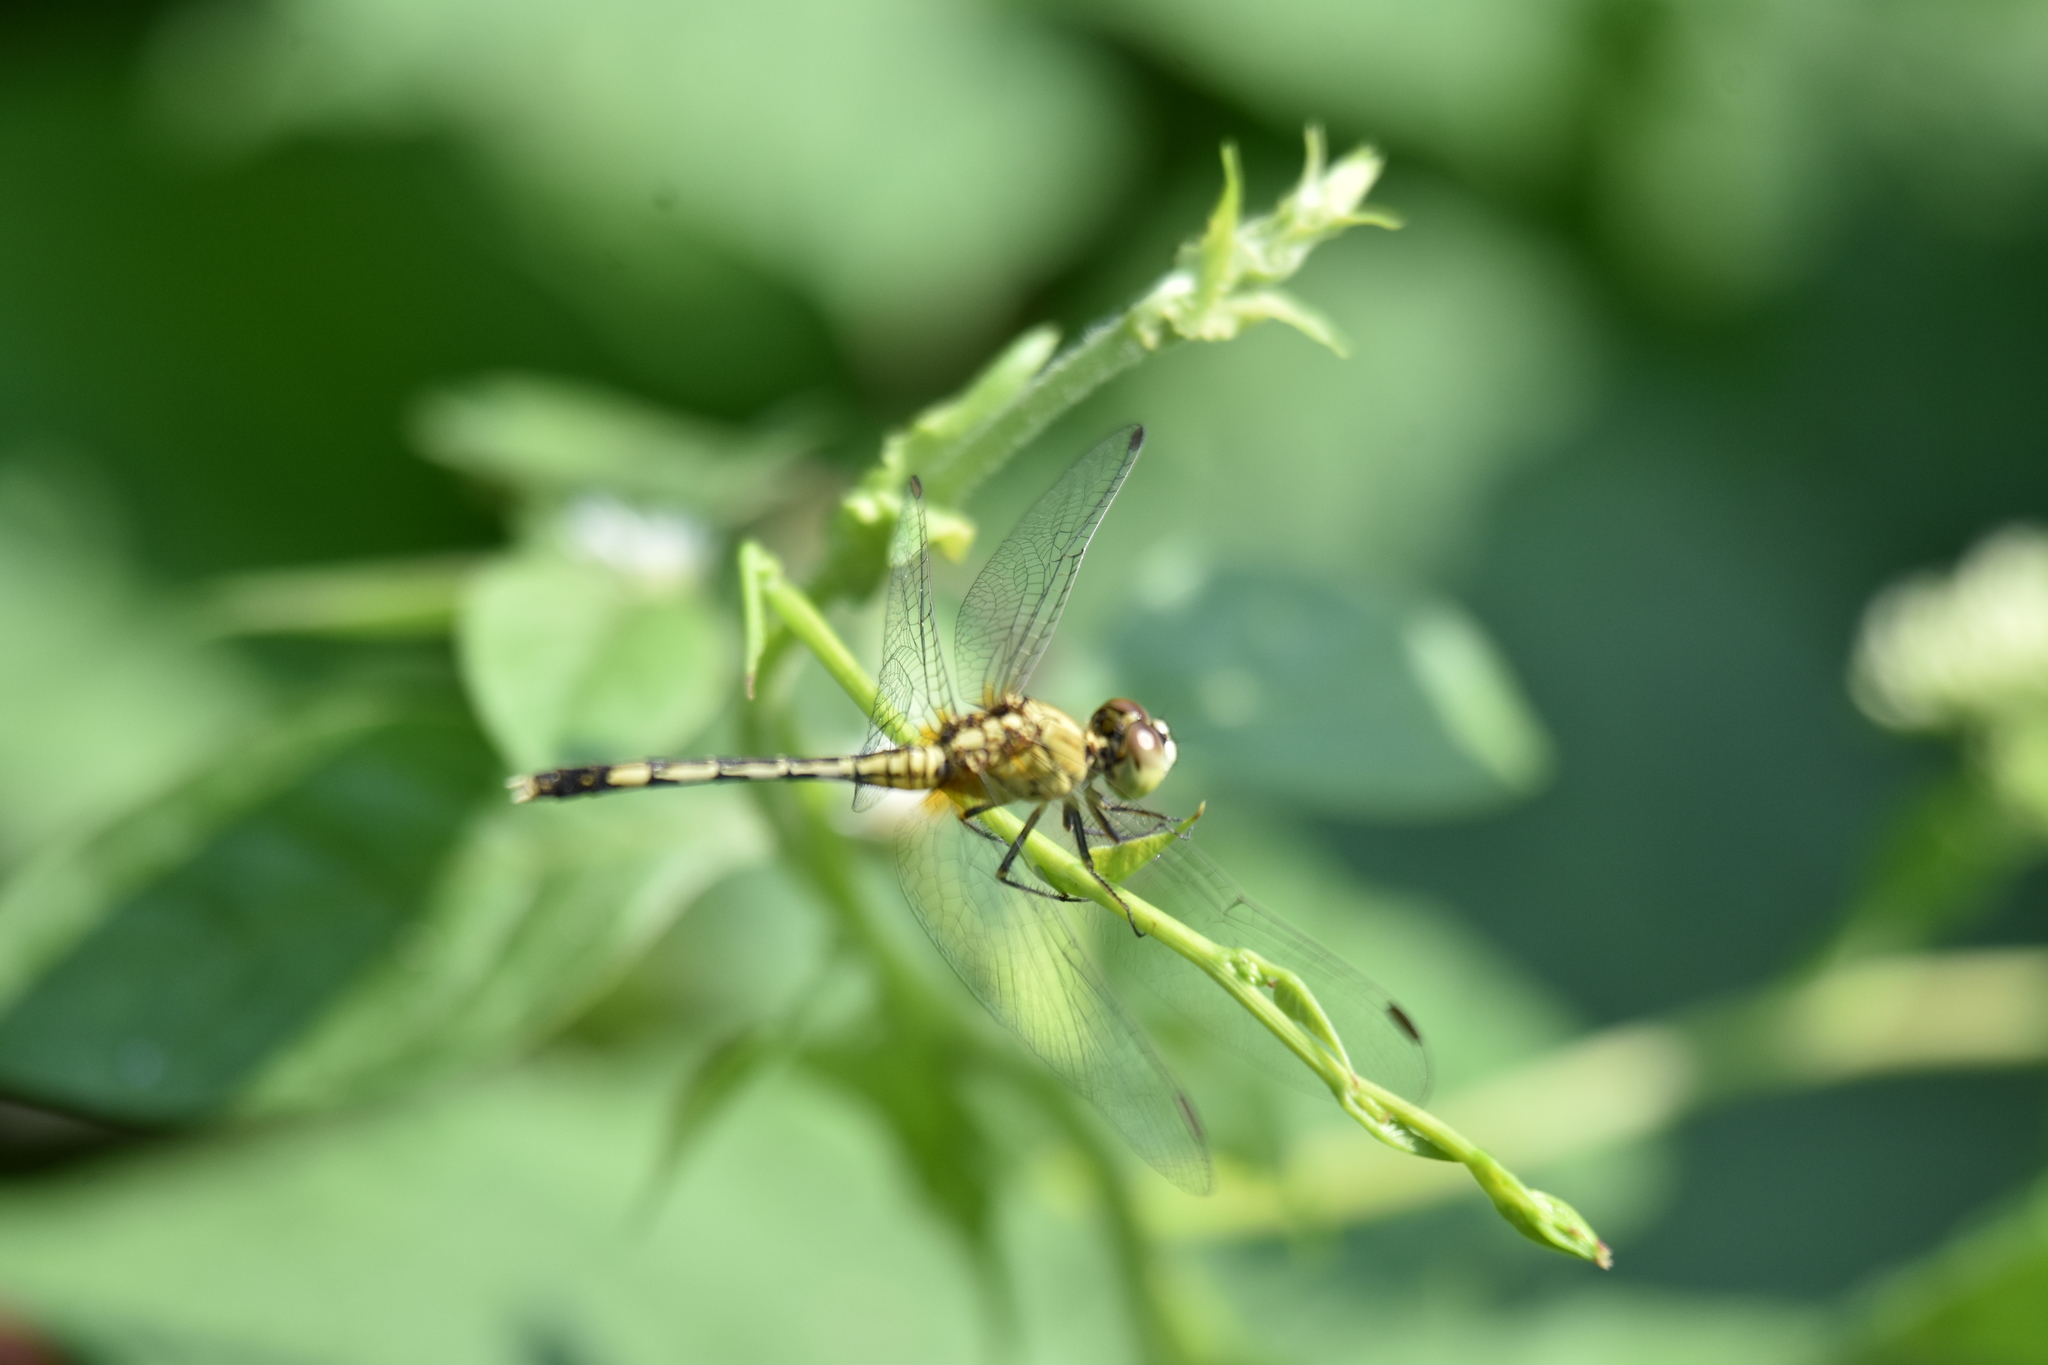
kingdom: Animalia
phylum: Arthropoda
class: Insecta
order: Odonata
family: Libellulidae
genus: Diplacodes
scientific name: Diplacodes trivialis
